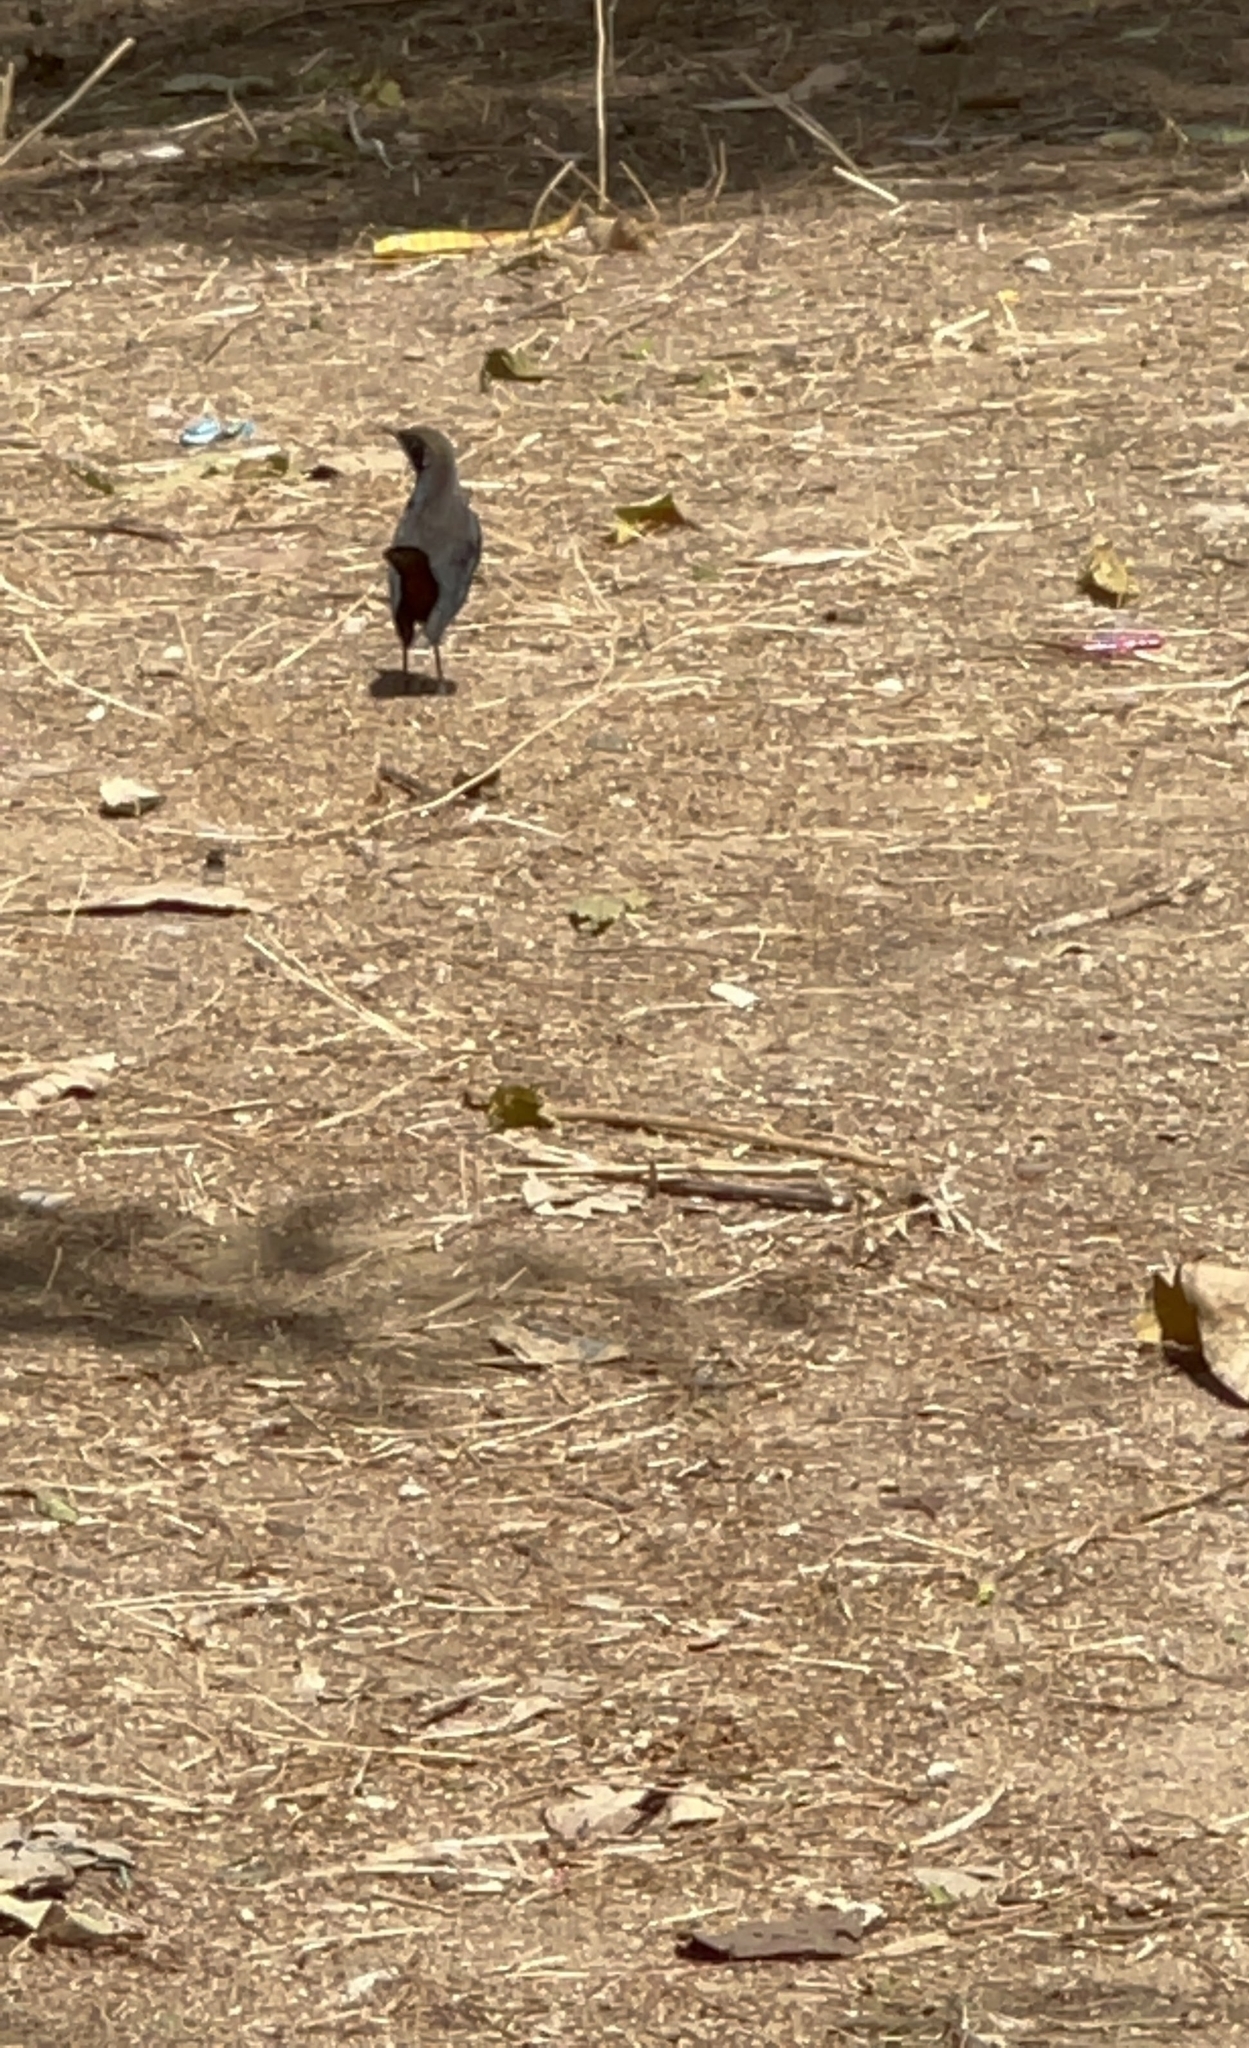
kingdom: Animalia
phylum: Chordata
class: Aves
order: Passeriformes
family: Muscicapidae
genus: Saxicoloides
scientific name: Saxicoloides fulicatus
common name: Indian robin
